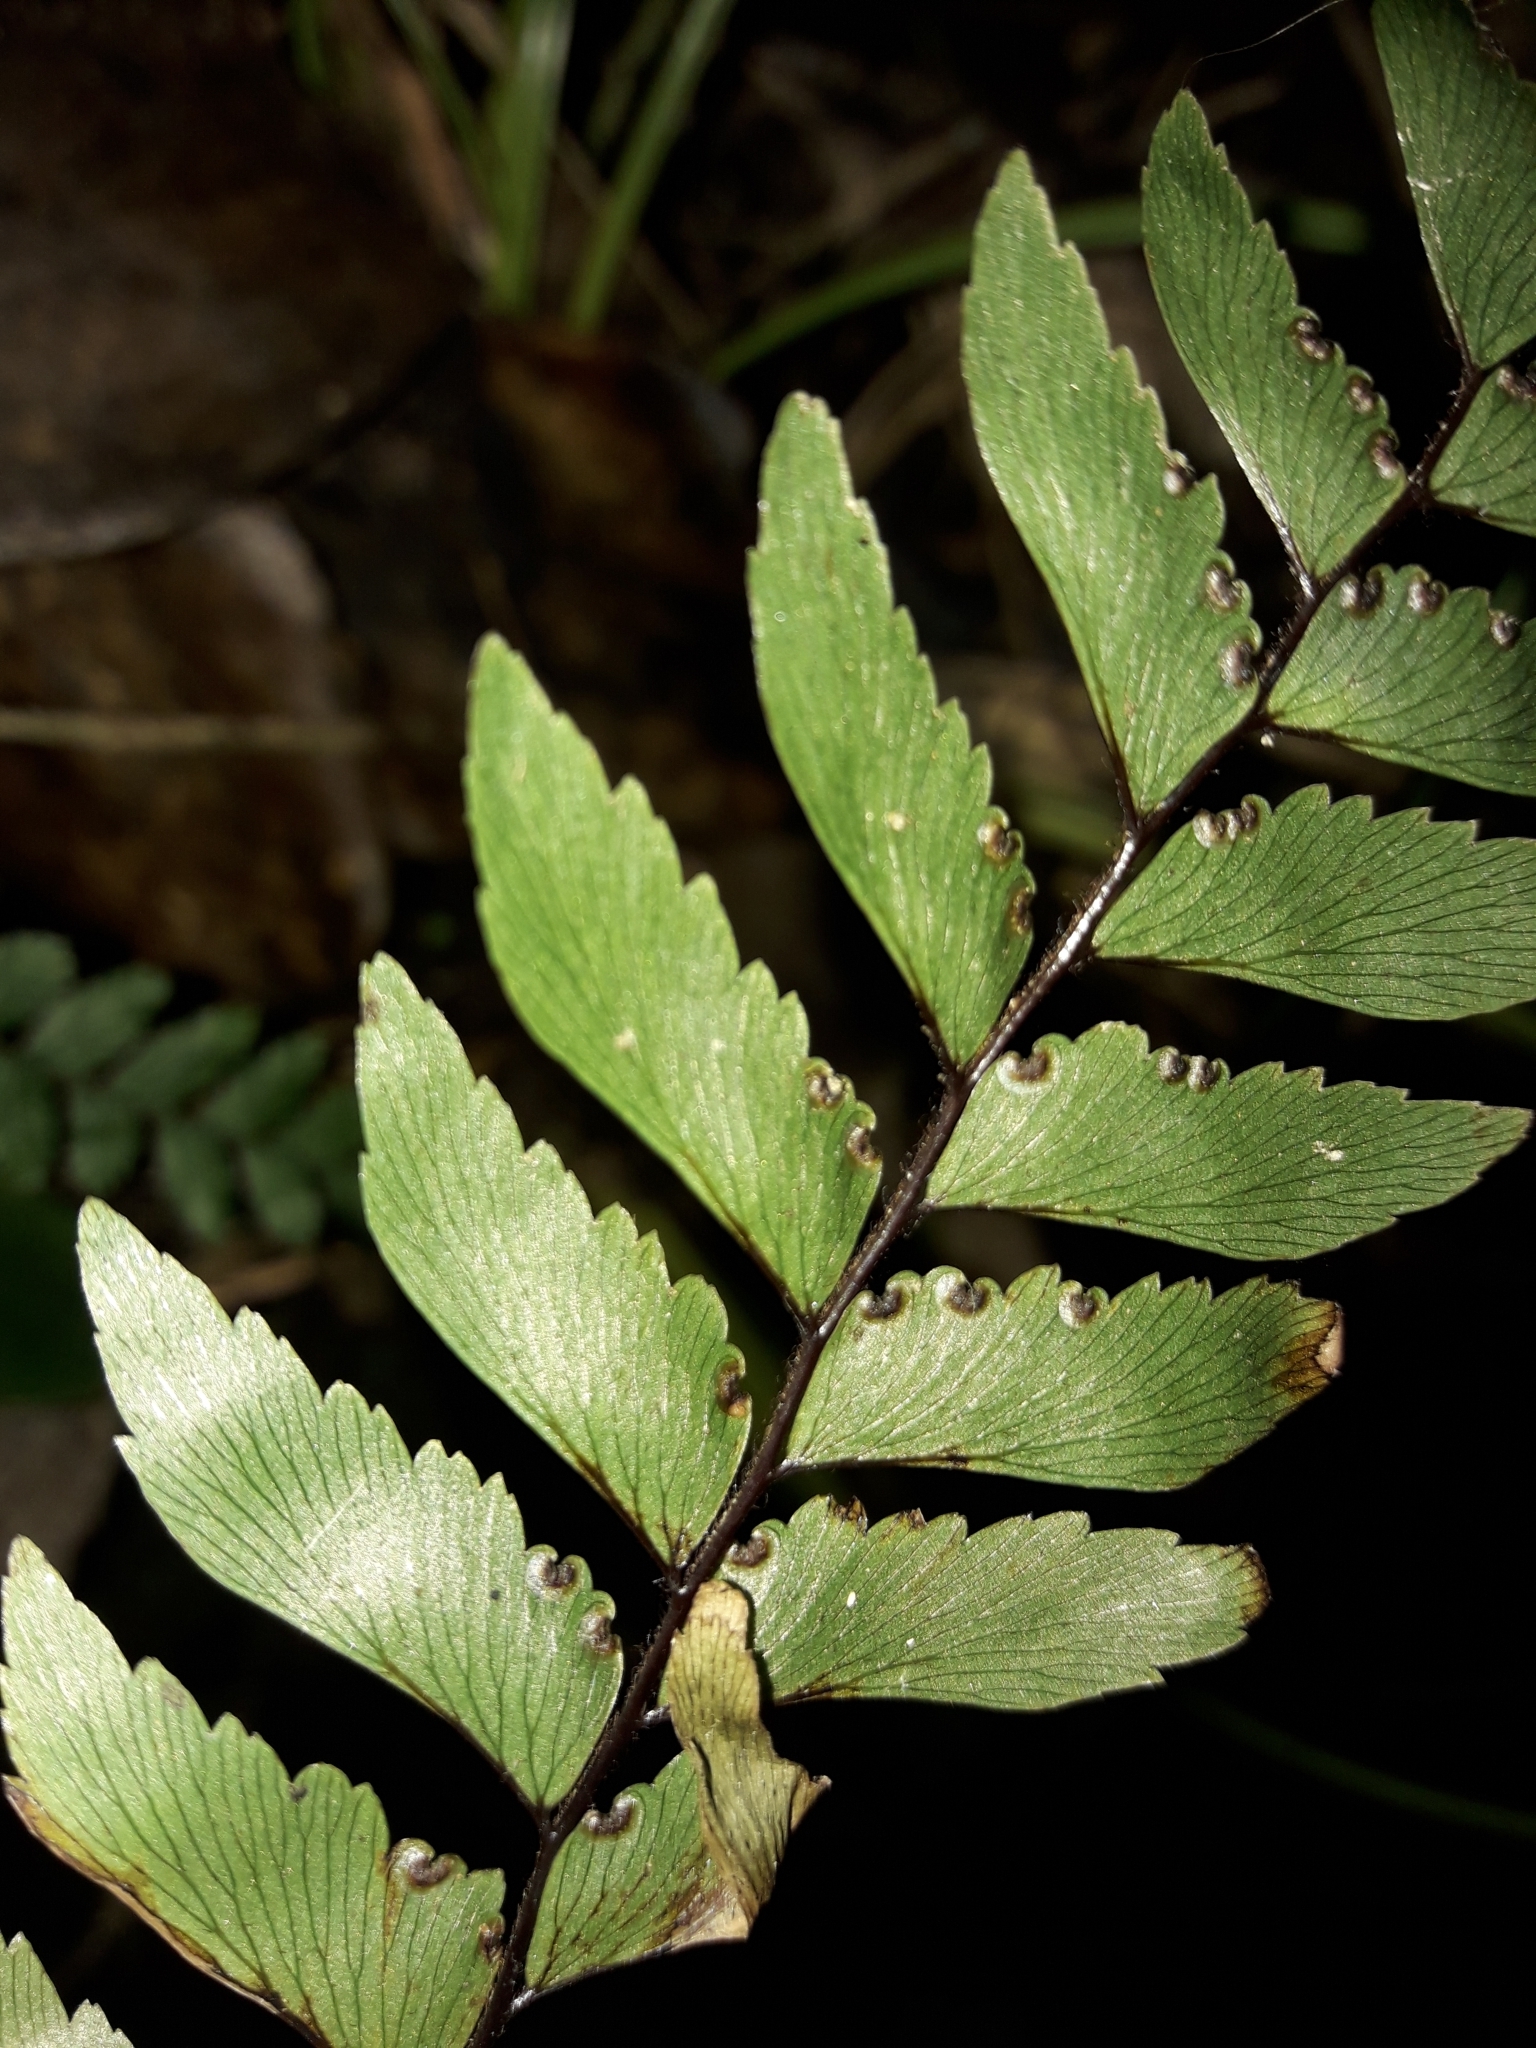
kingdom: Plantae
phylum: Tracheophyta
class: Polypodiopsida
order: Polypodiales
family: Pteridaceae
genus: Adiantum
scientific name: Adiantum fulvum
